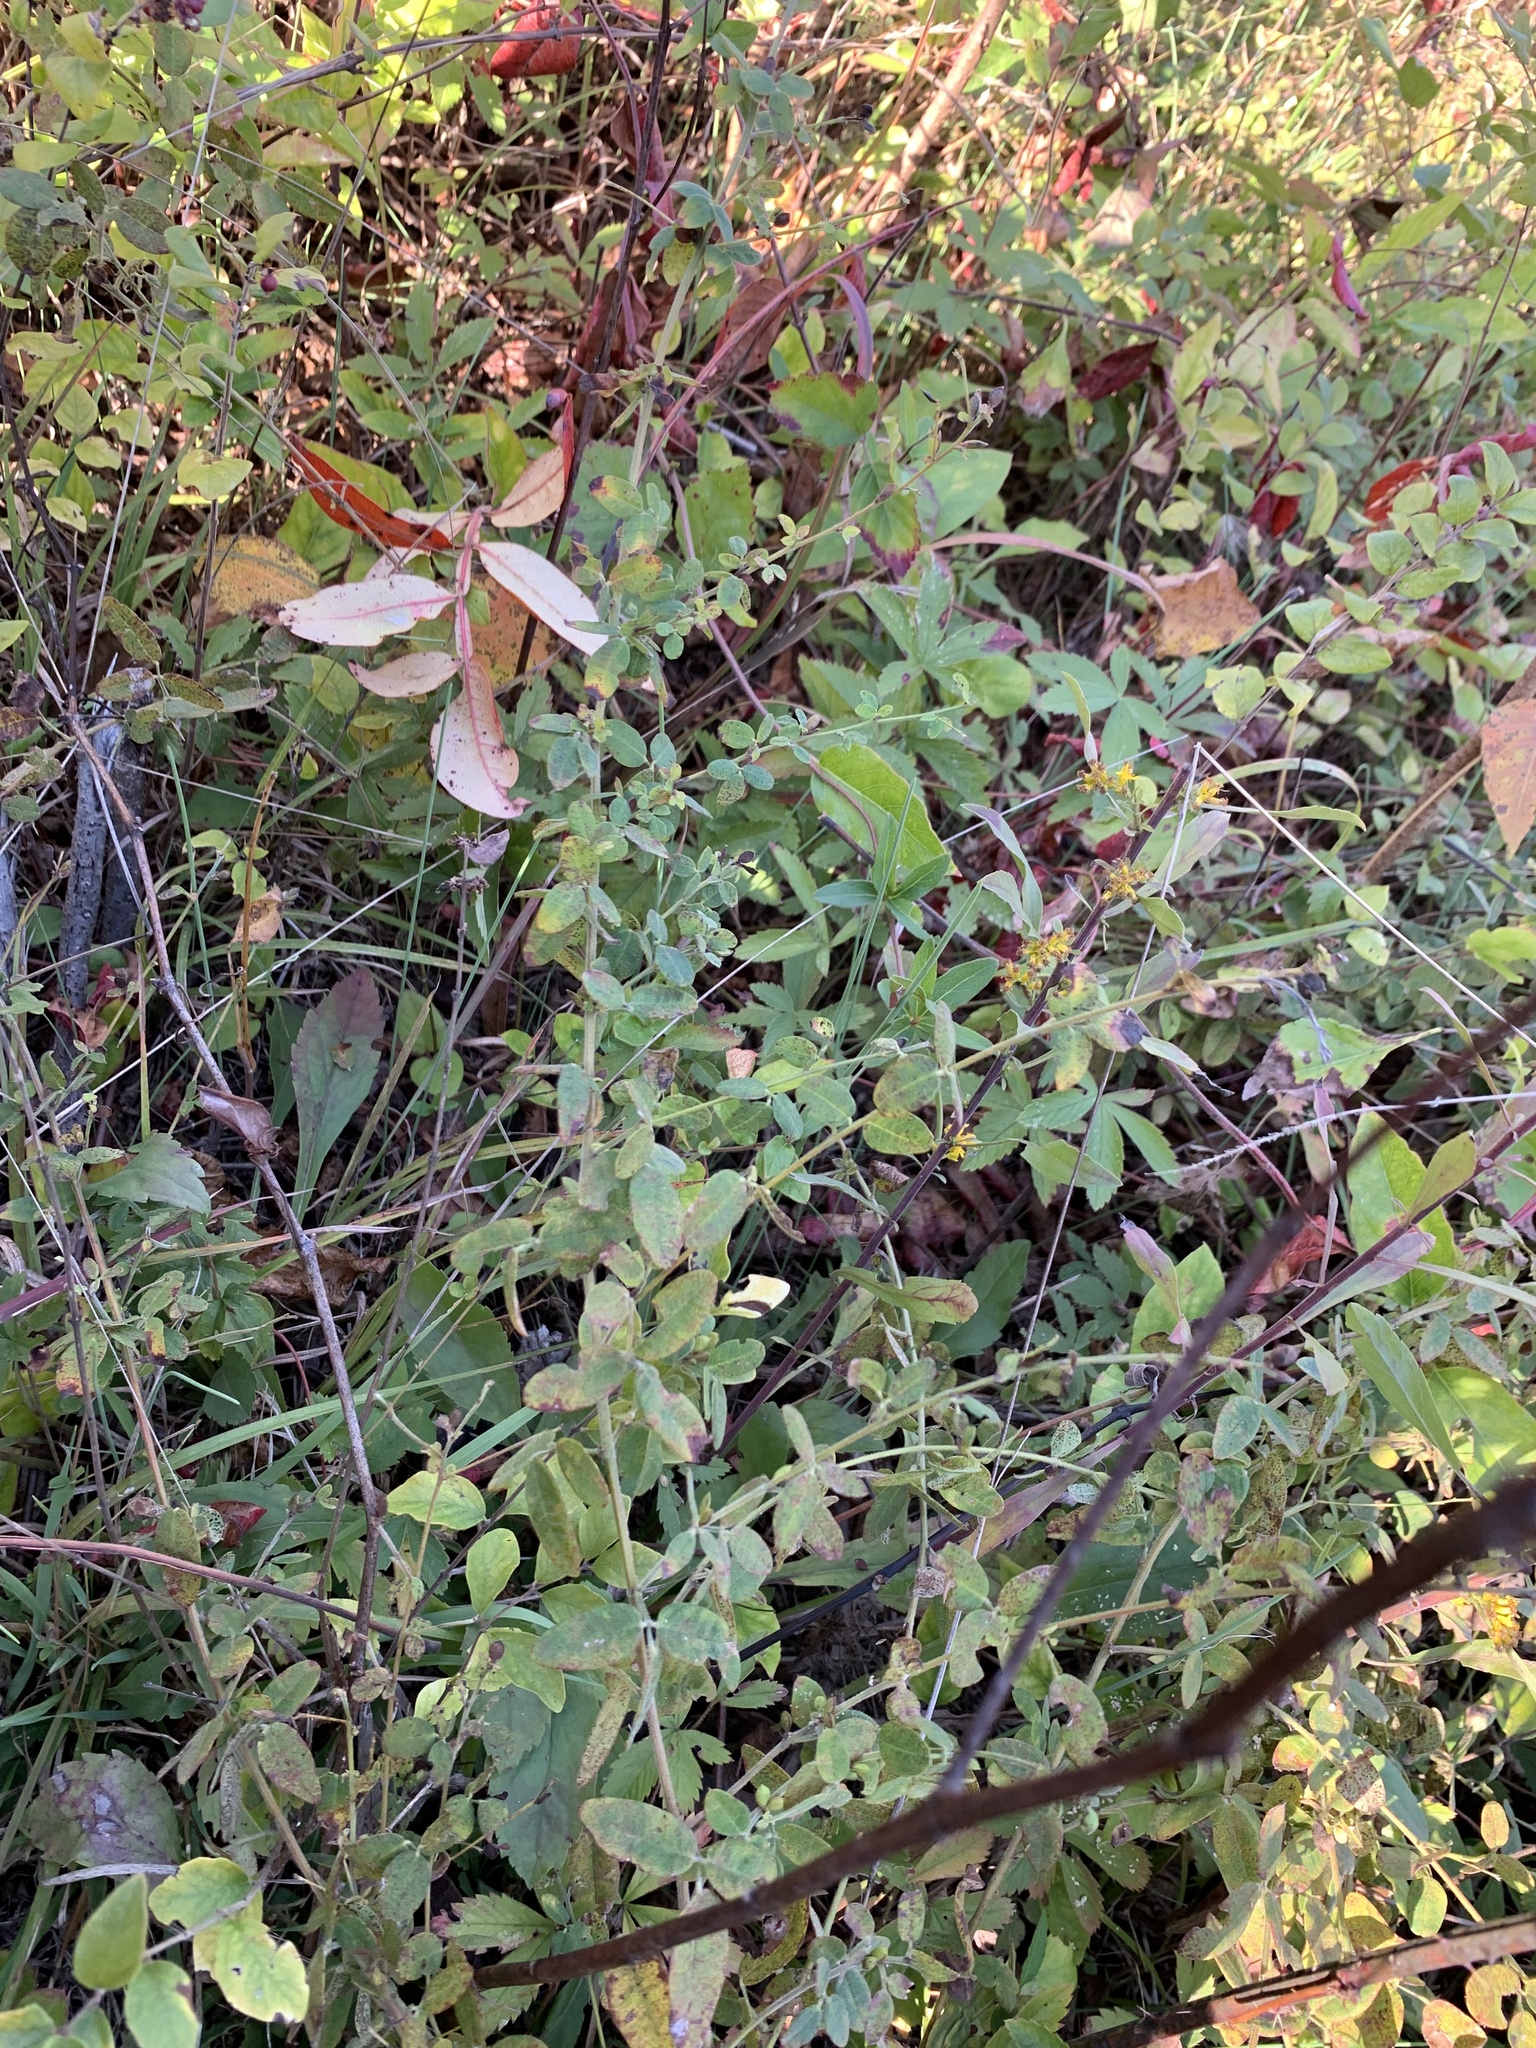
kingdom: Plantae
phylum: Tracheophyta
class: Magnoliopsida
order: Fabales
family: Fabaceae
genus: Lespedeza
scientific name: Lespedeza procumbens
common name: Downy trailing bush-clover
